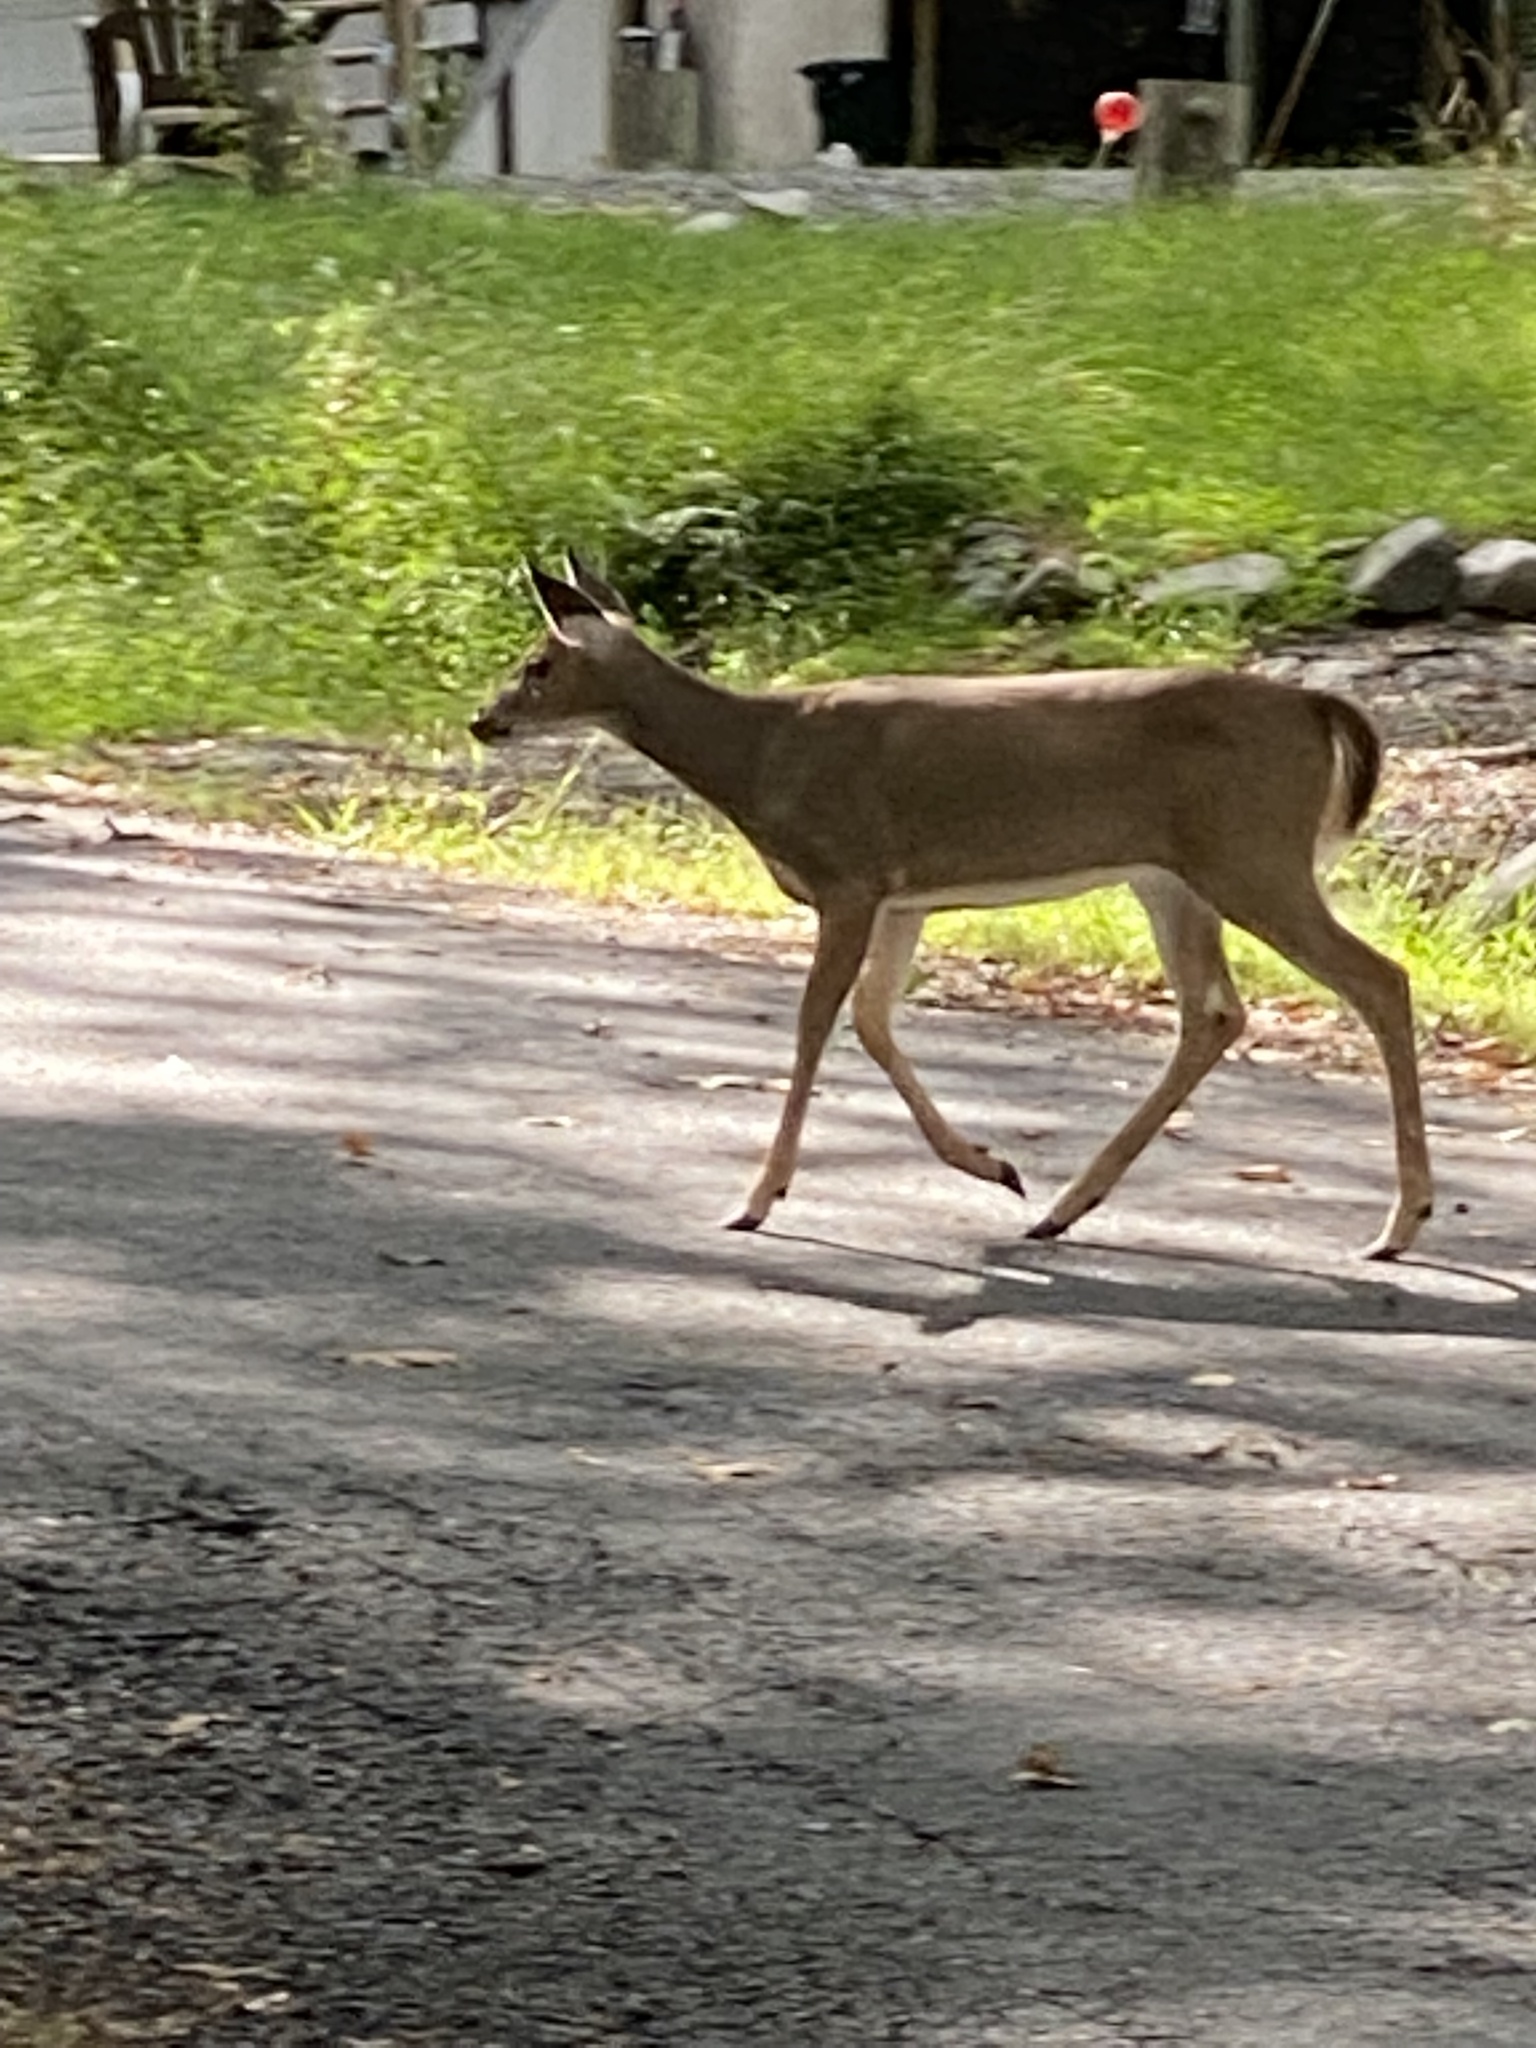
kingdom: Animalia
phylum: Chordata
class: Mammalia
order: Artiodactyla
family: Cervidae
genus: Odocoileus
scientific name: Odocoileus virginianus
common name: White-tailed deer
